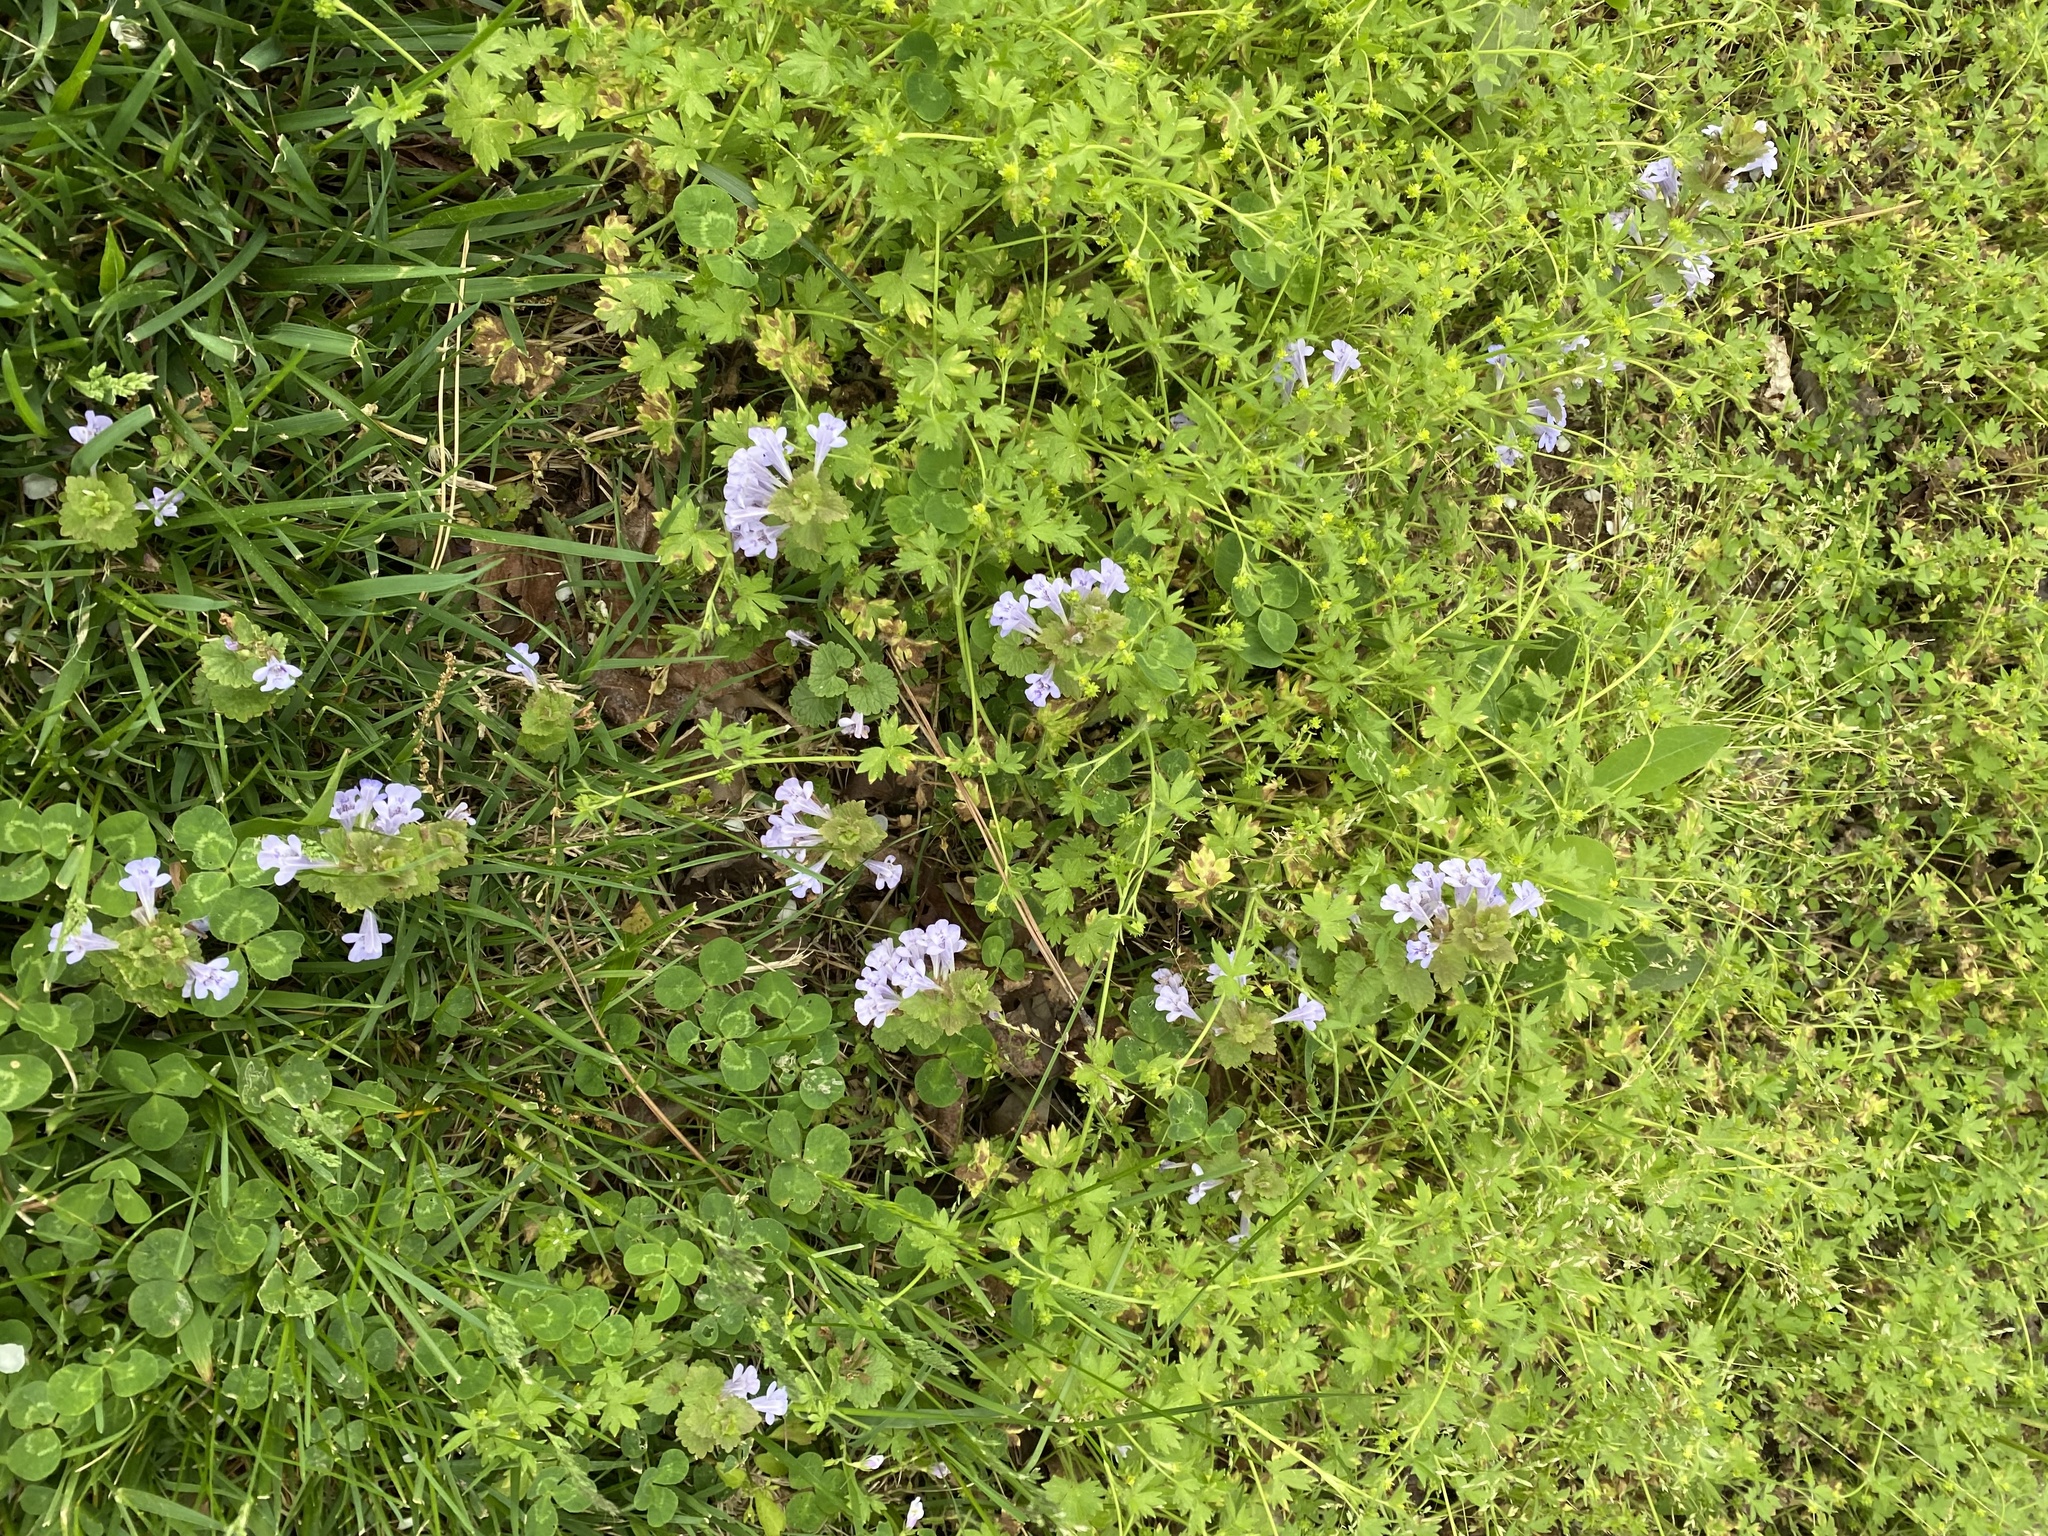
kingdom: Plantae
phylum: Tracheophyta
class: Magnoliopsida
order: Lamiales
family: Lamiaceae
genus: Glechoma
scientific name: Glechoma hederacea
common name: Ground ivy
